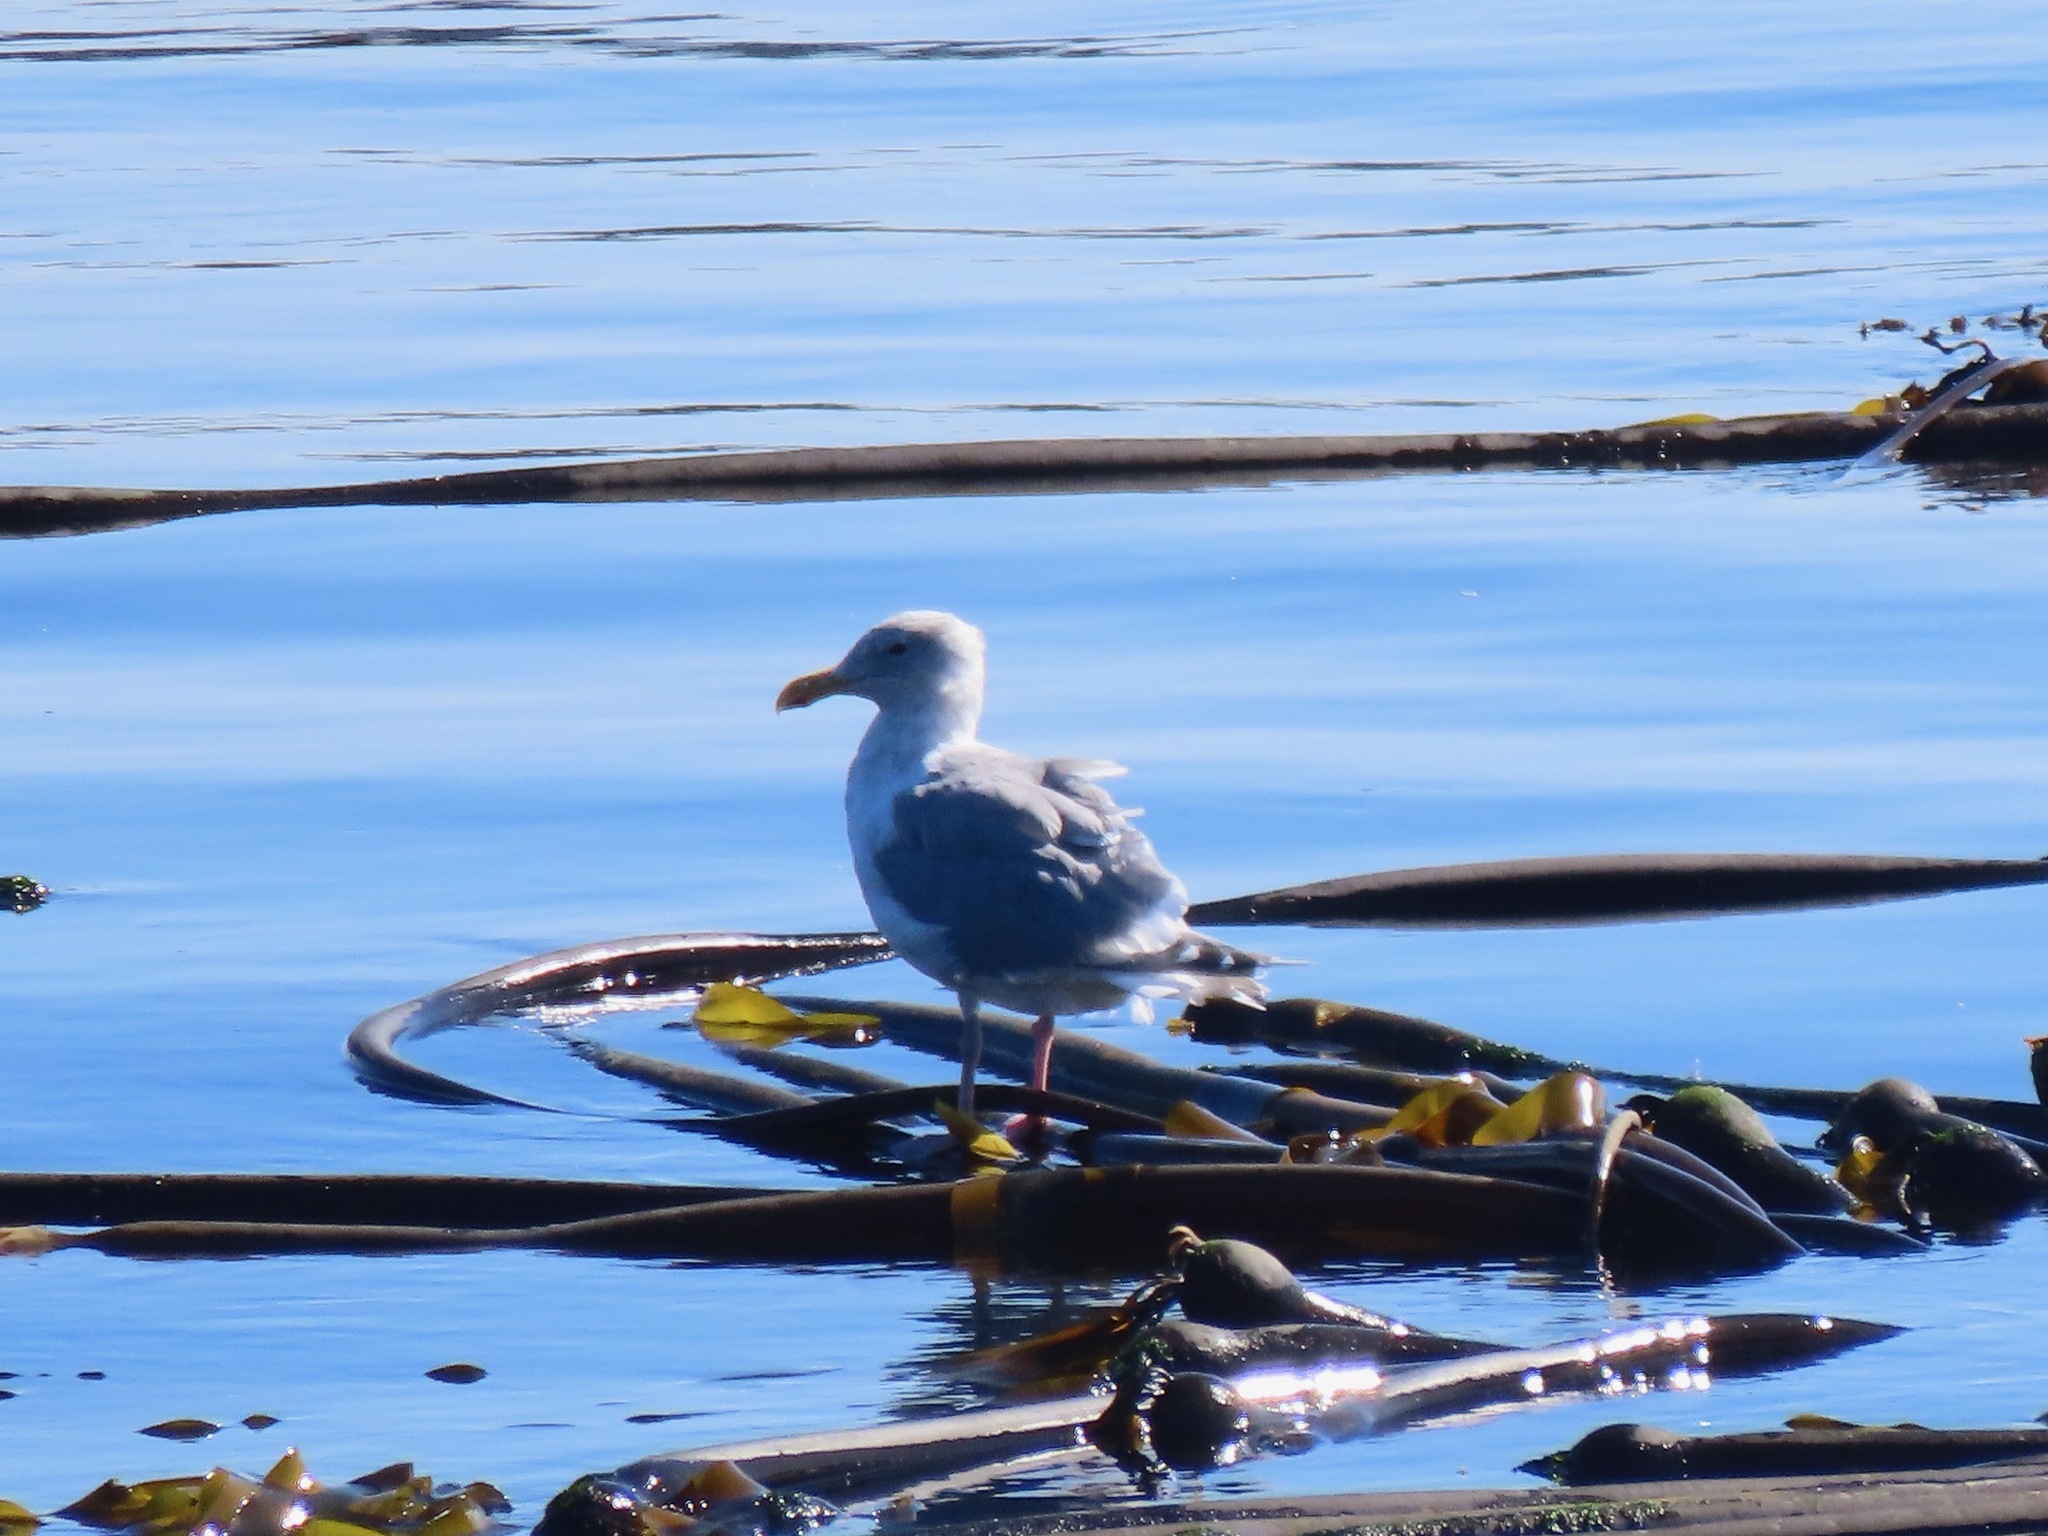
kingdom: Animalia
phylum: Chordata
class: Aves
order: Charadriiformes
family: Laridae
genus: Larus
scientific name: Larus
